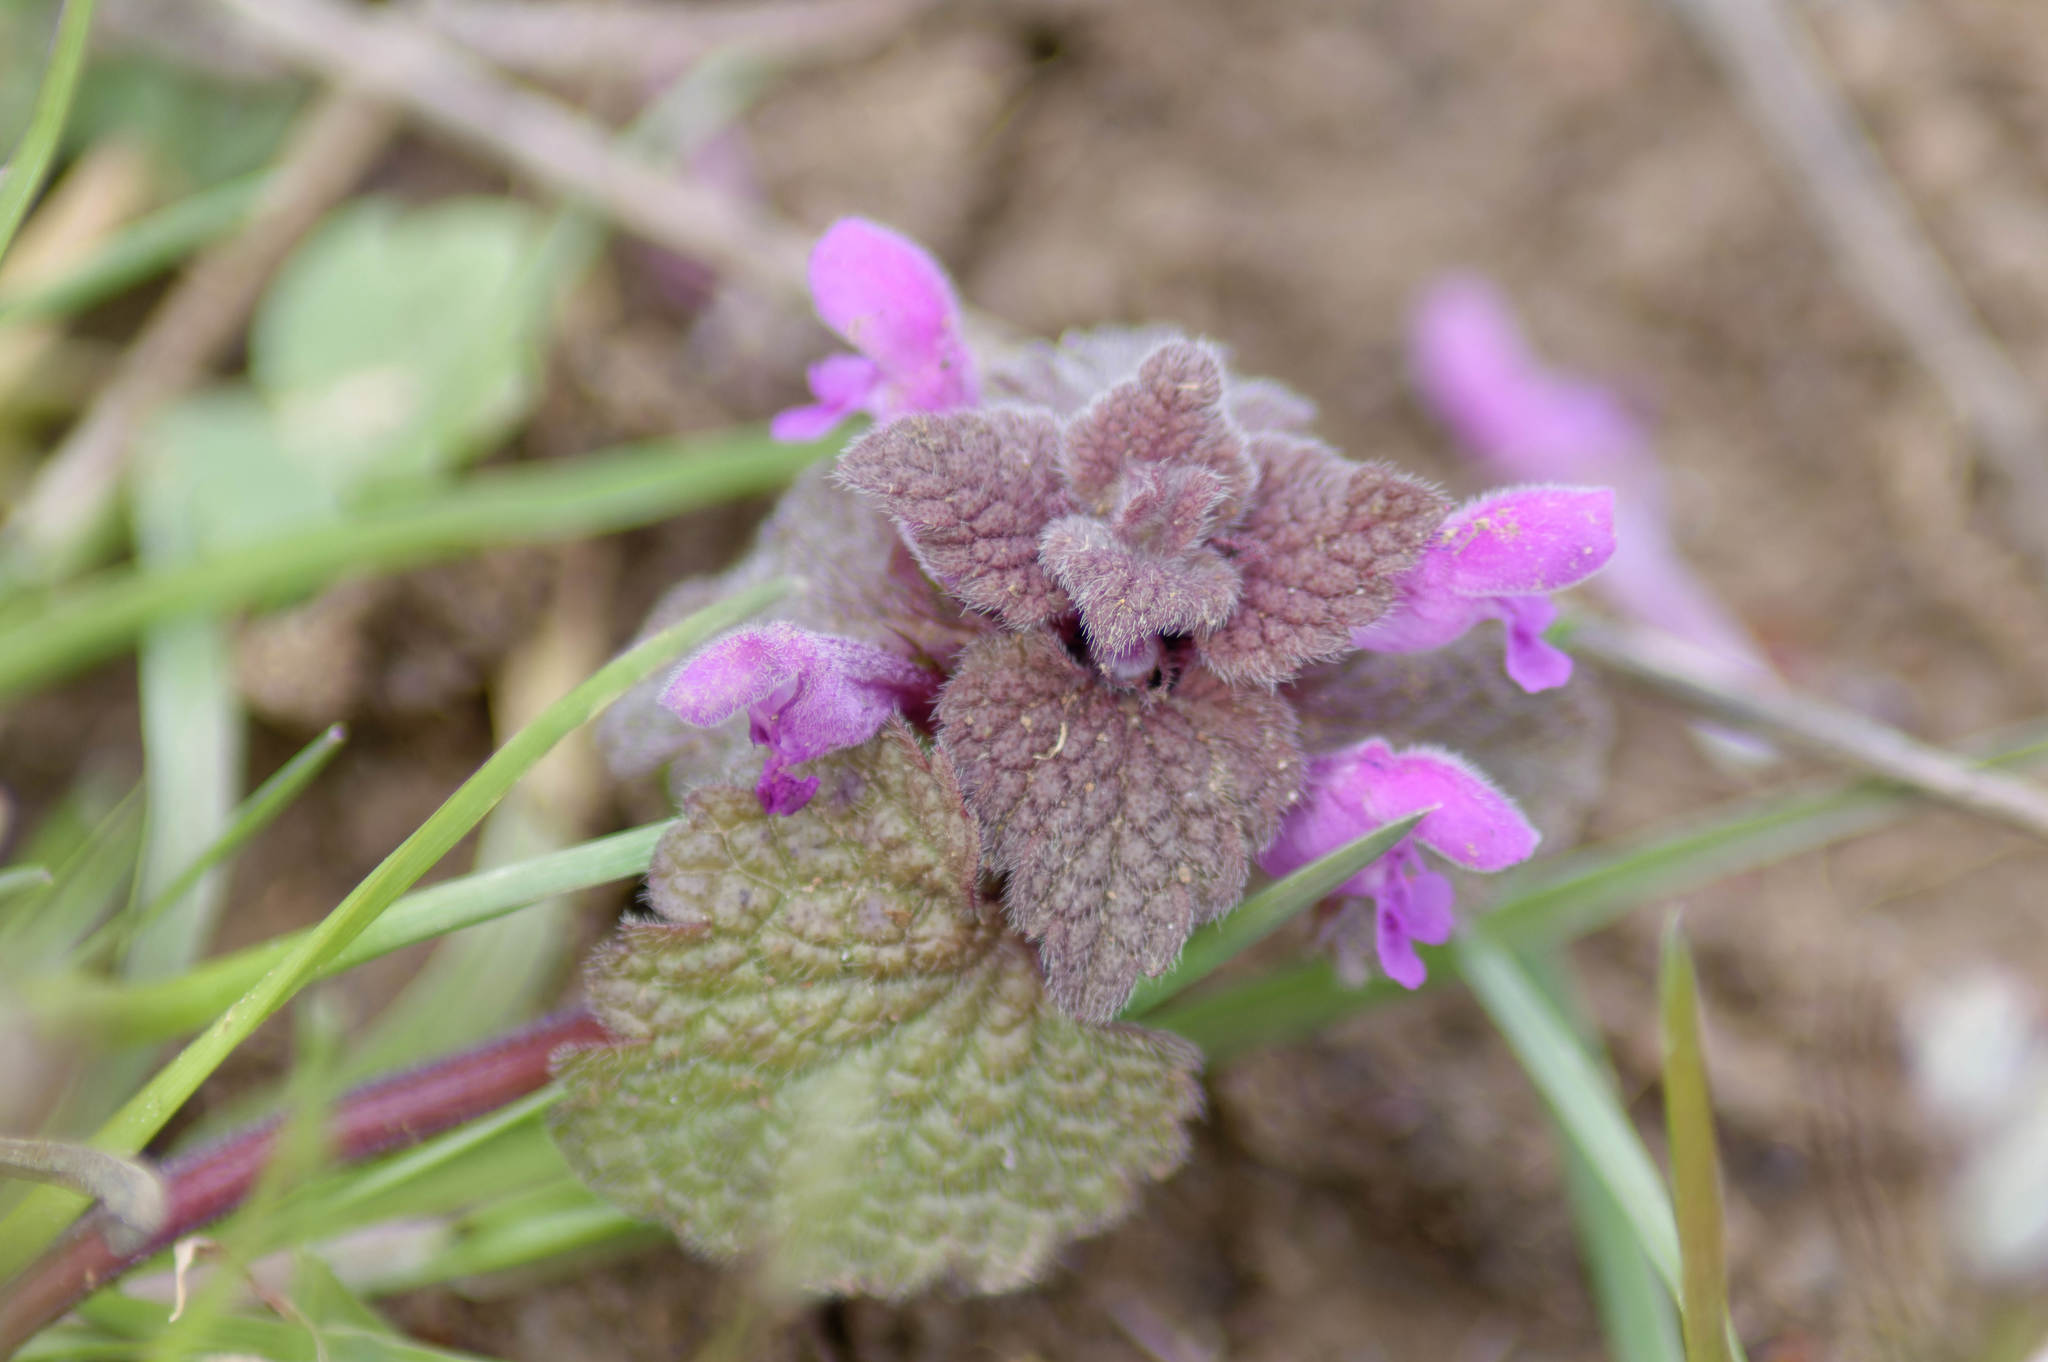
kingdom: Plantae
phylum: Tracheophyta
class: Magnoliopsida
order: Lamiales
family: Lamiaceae
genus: Lamium
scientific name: Lamium purpureum
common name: Red dead-nettle
